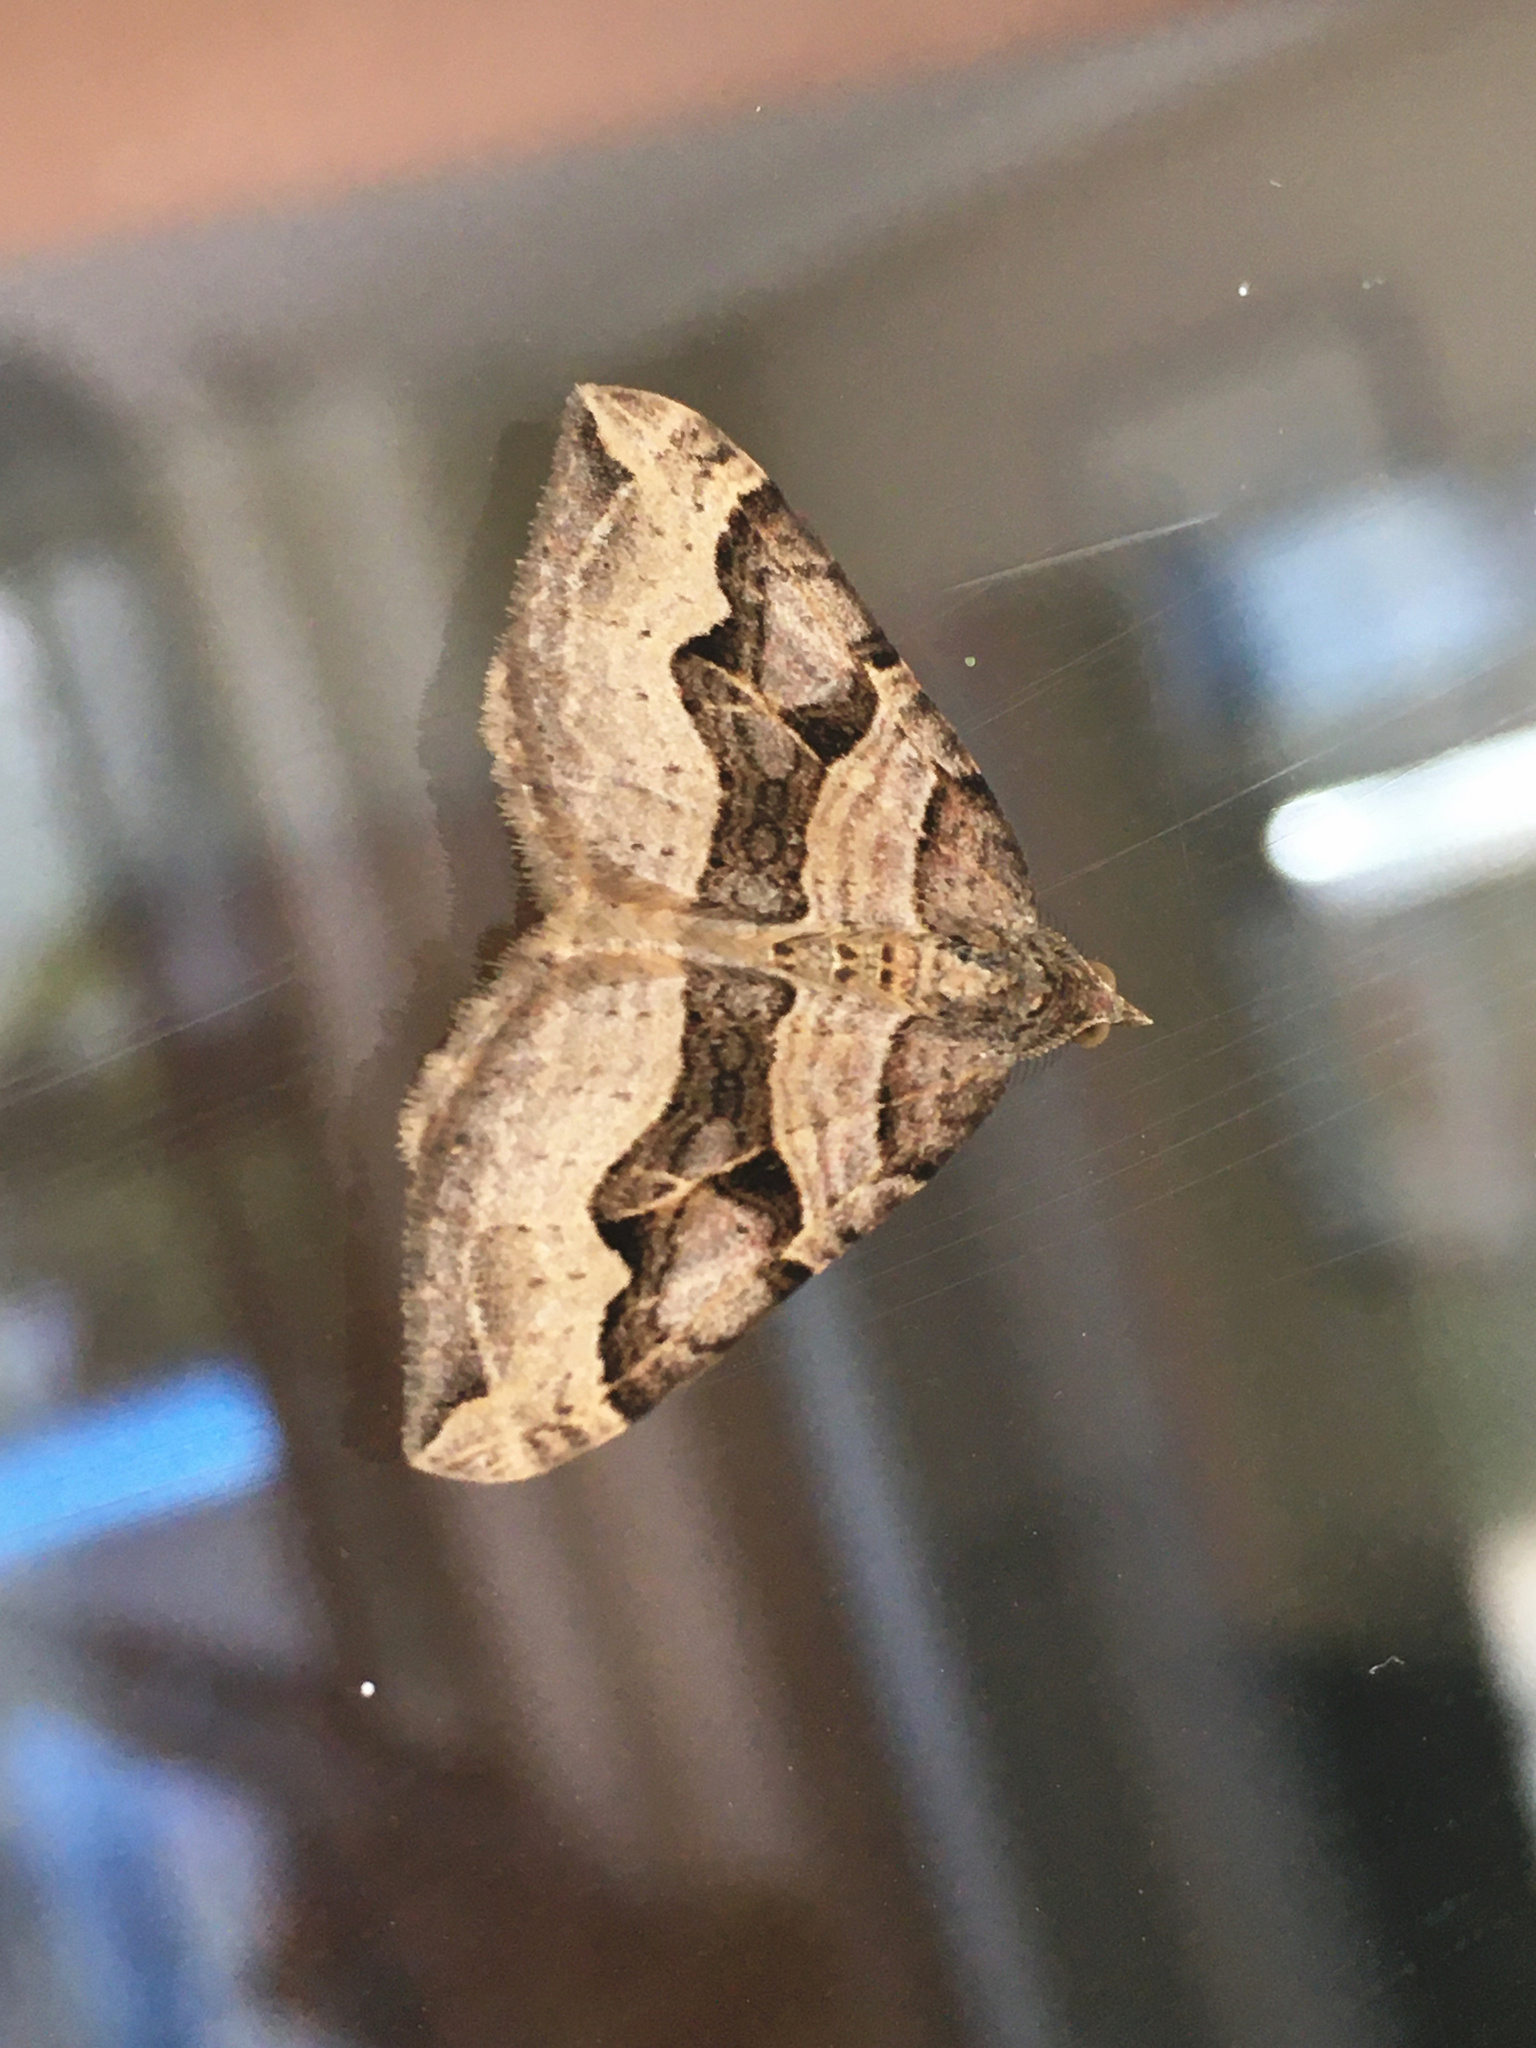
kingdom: Animalia
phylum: Arthropoda
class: Insecta
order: Lepidoptera
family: Geometridae
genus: Xanthorhoe
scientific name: Xanthorhoe semifissata
